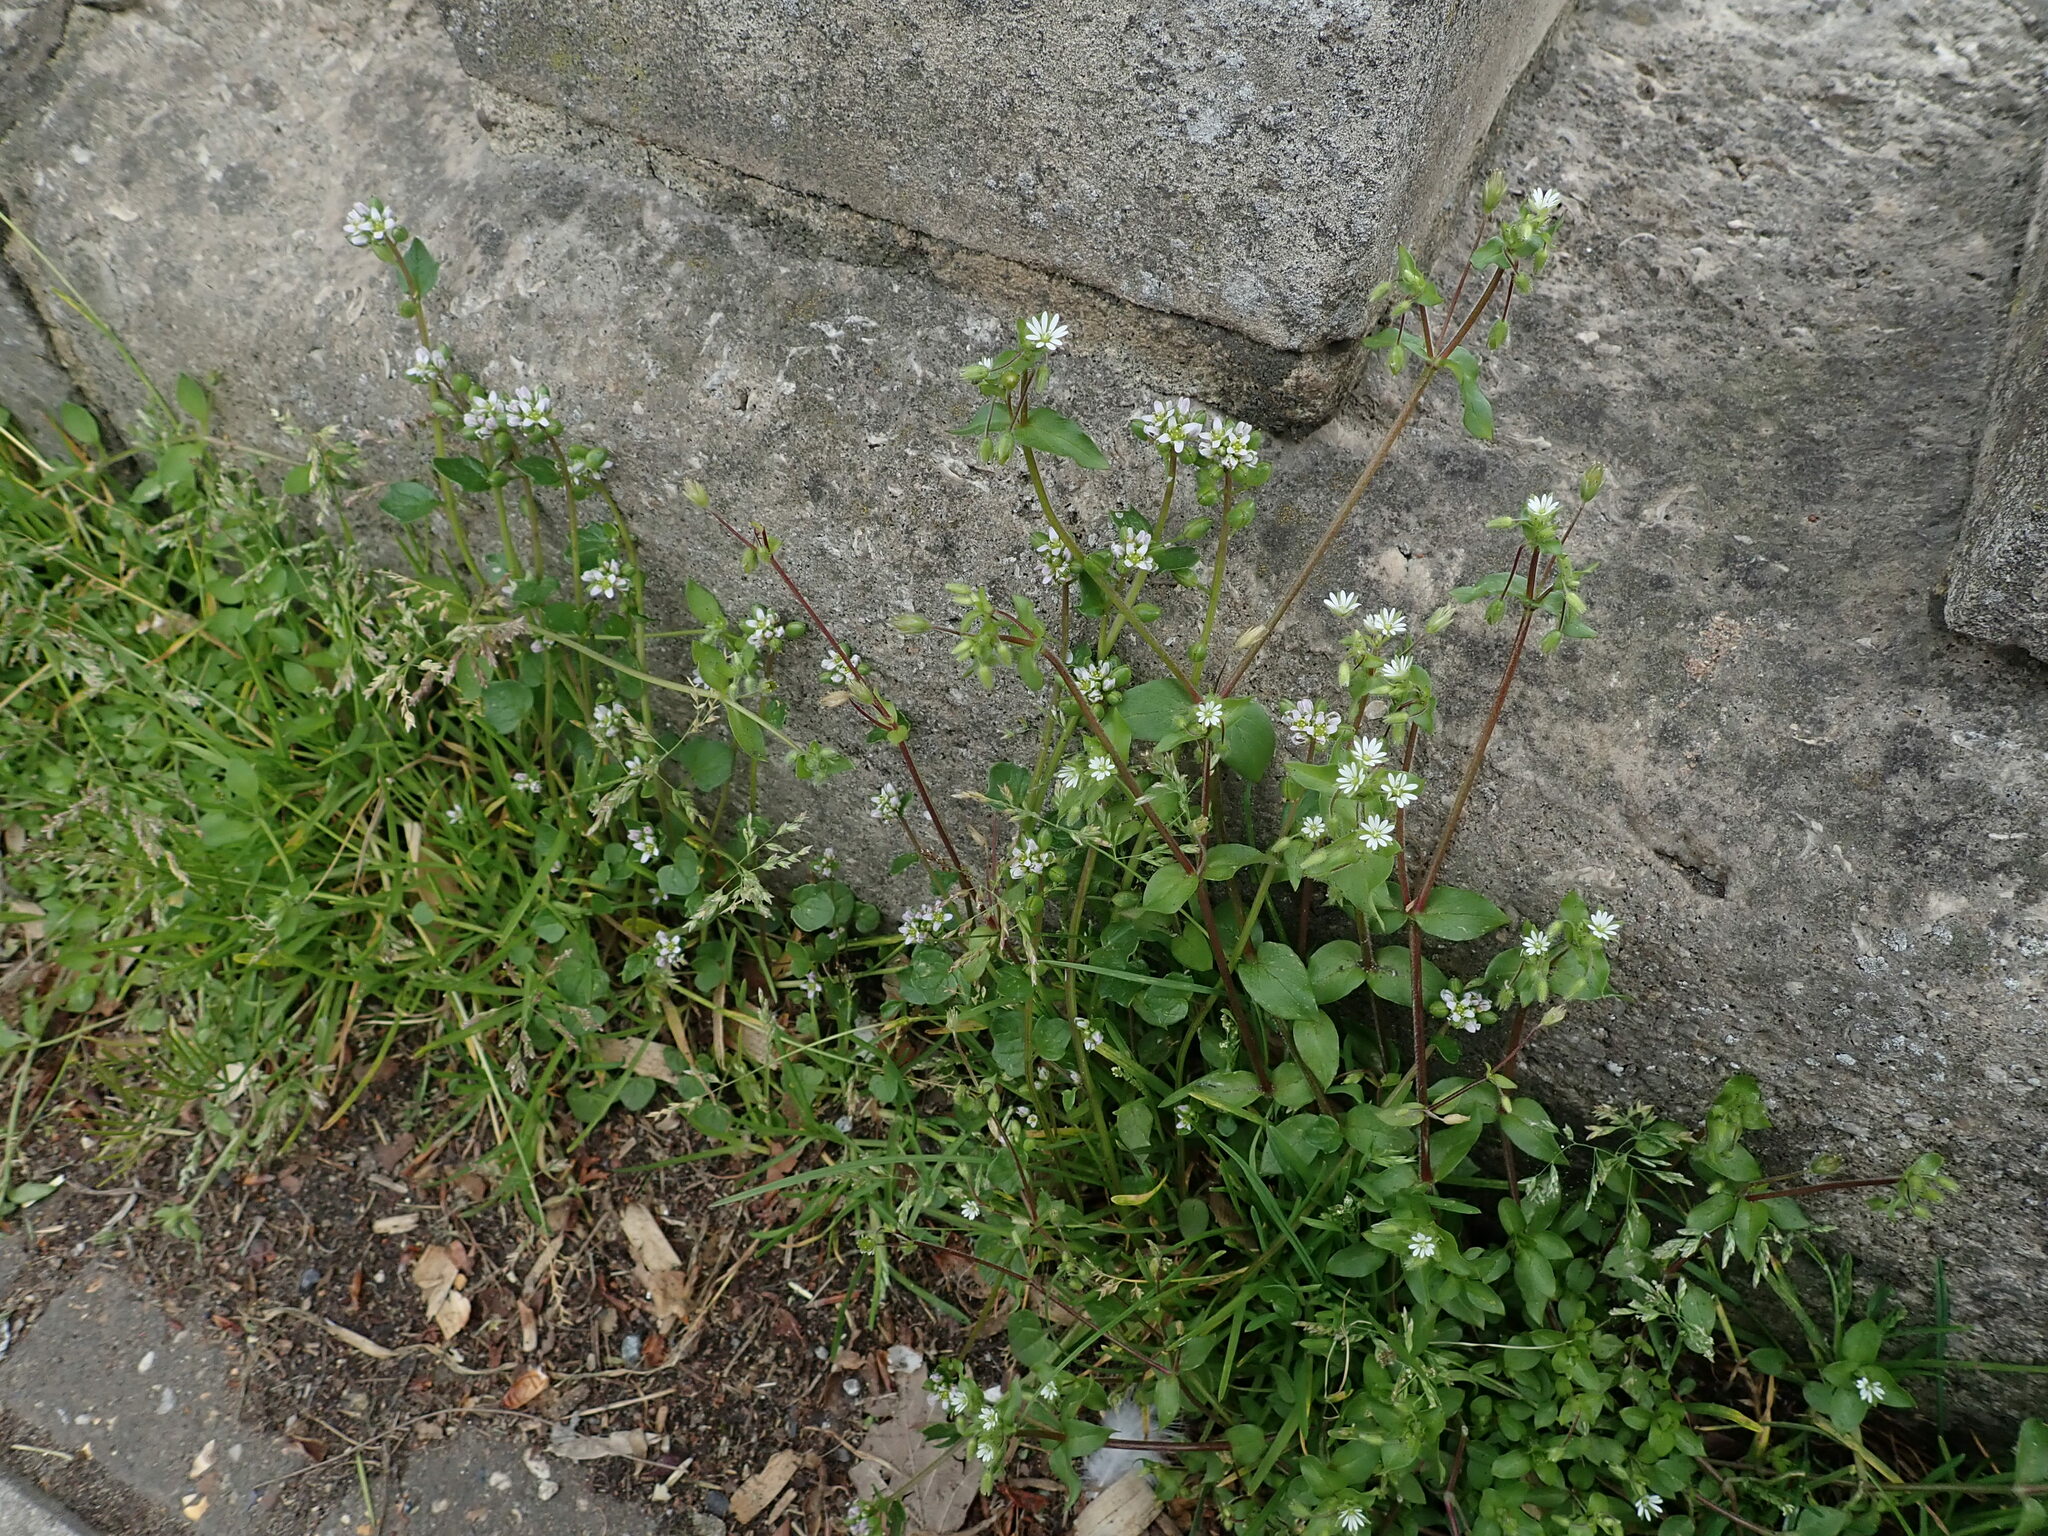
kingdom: Plantae
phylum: Tracheophyta
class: Magnoliopsida
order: Brassicales
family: Brassicaceae
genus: Cochlearia
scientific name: Cochlearia danica
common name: Early scurvygrass
